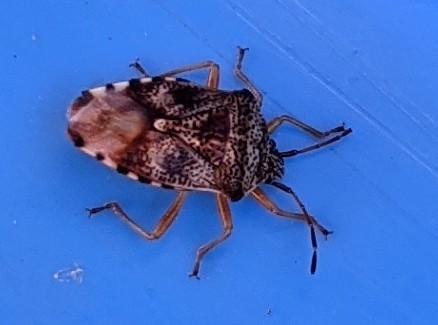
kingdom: Animalia
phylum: Arthropoda
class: Insecta
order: Hemiptera
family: Acanthosomatidae
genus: Elasmucha
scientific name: Elasmucha lateralis
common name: Shield bug
